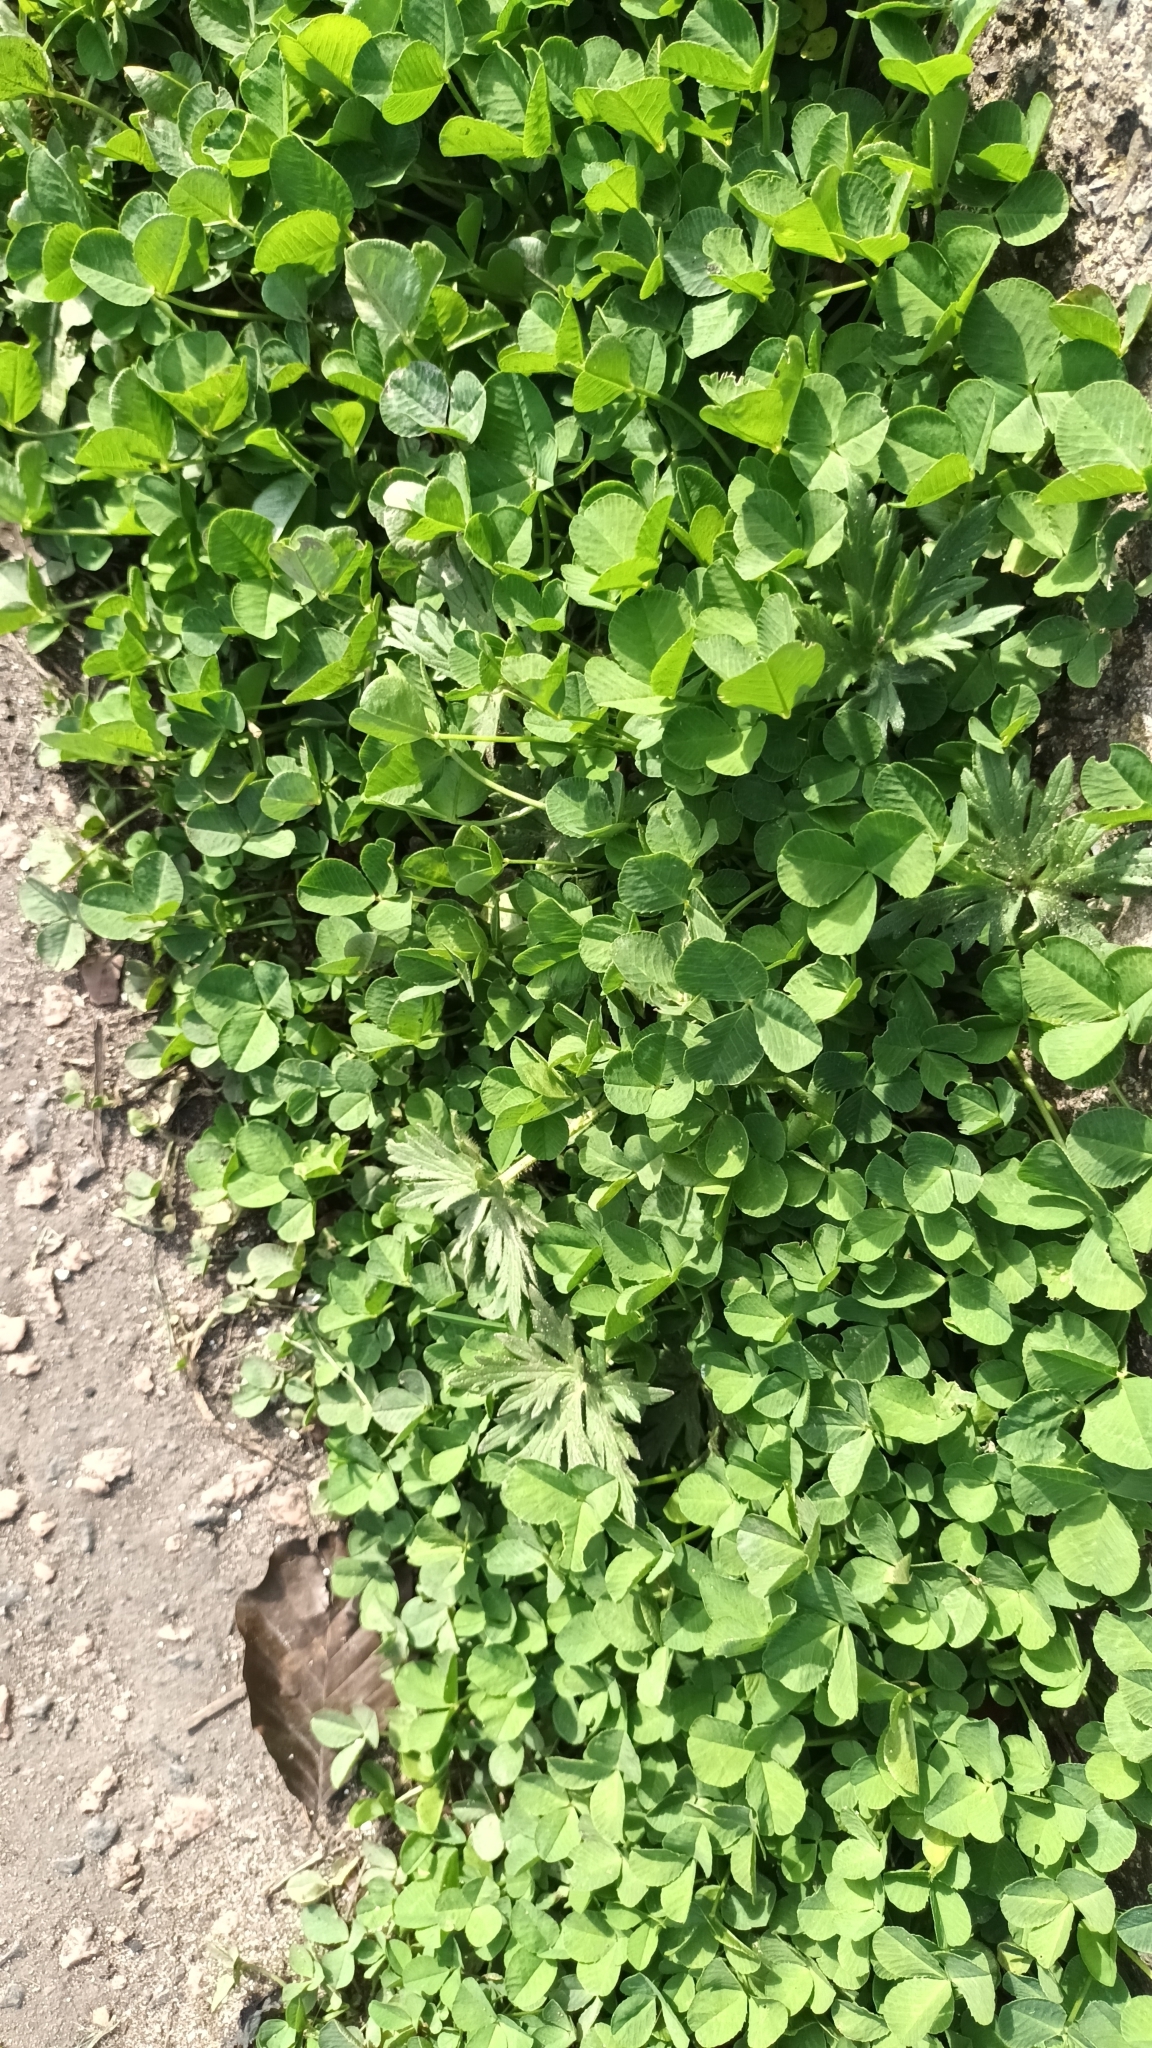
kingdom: Plantae
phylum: Tracheophyta
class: Magnoliopsida
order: Fabales
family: Fabaceae
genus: Trifolium
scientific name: Trifolium repens
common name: White clover
